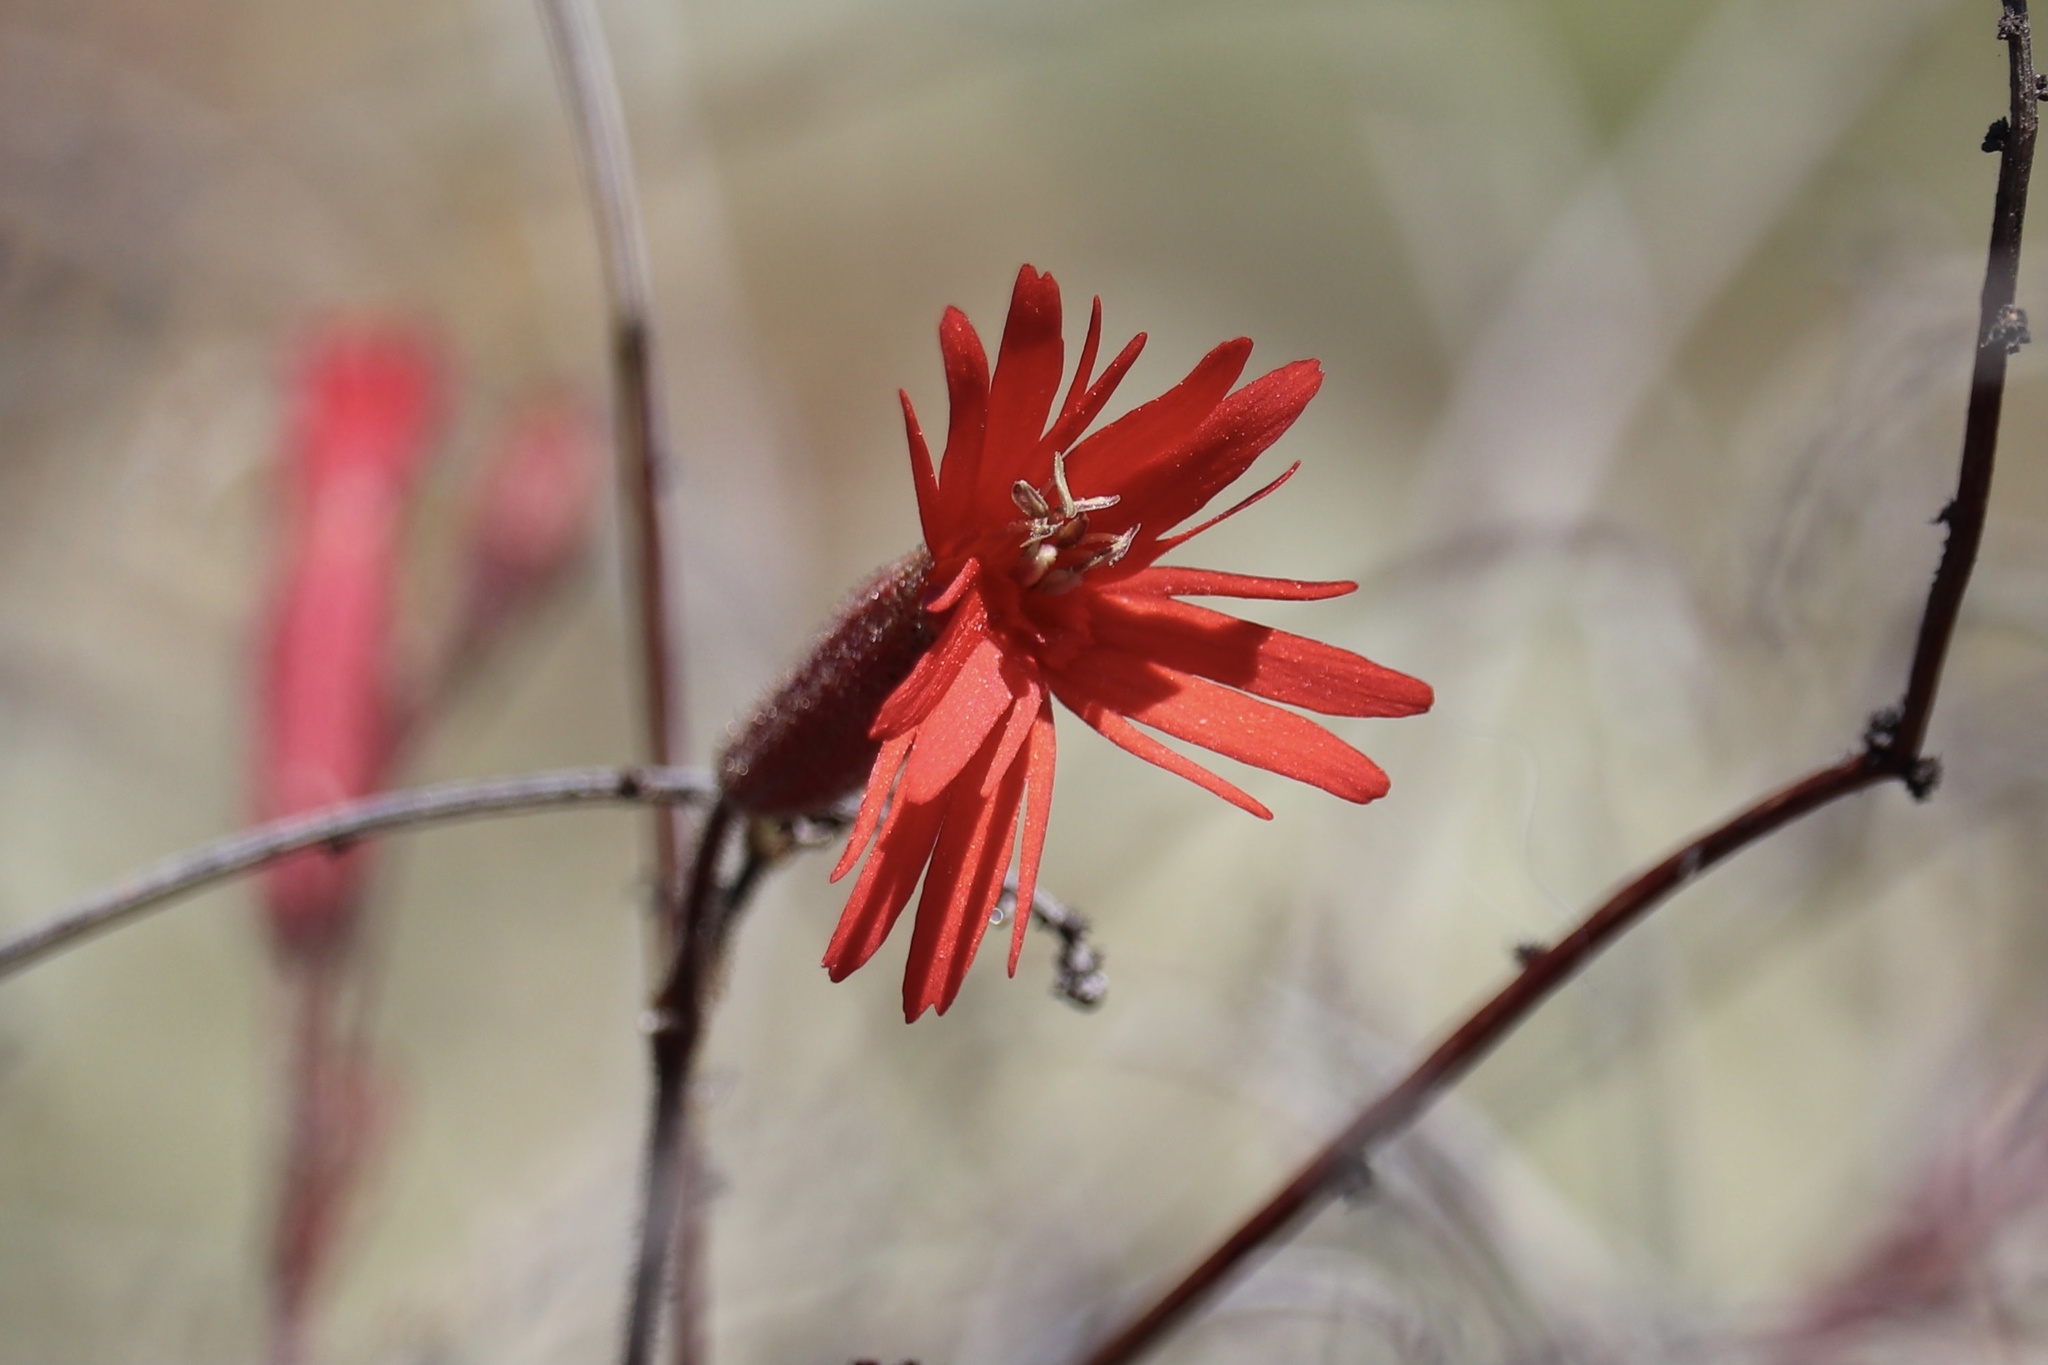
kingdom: Plantae
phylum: Tracheophyta
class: Magnoliopsida
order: Caryophyllales
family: Caryophyllaceae
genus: Silene
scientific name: Silene laciniata
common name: Indian-pink
